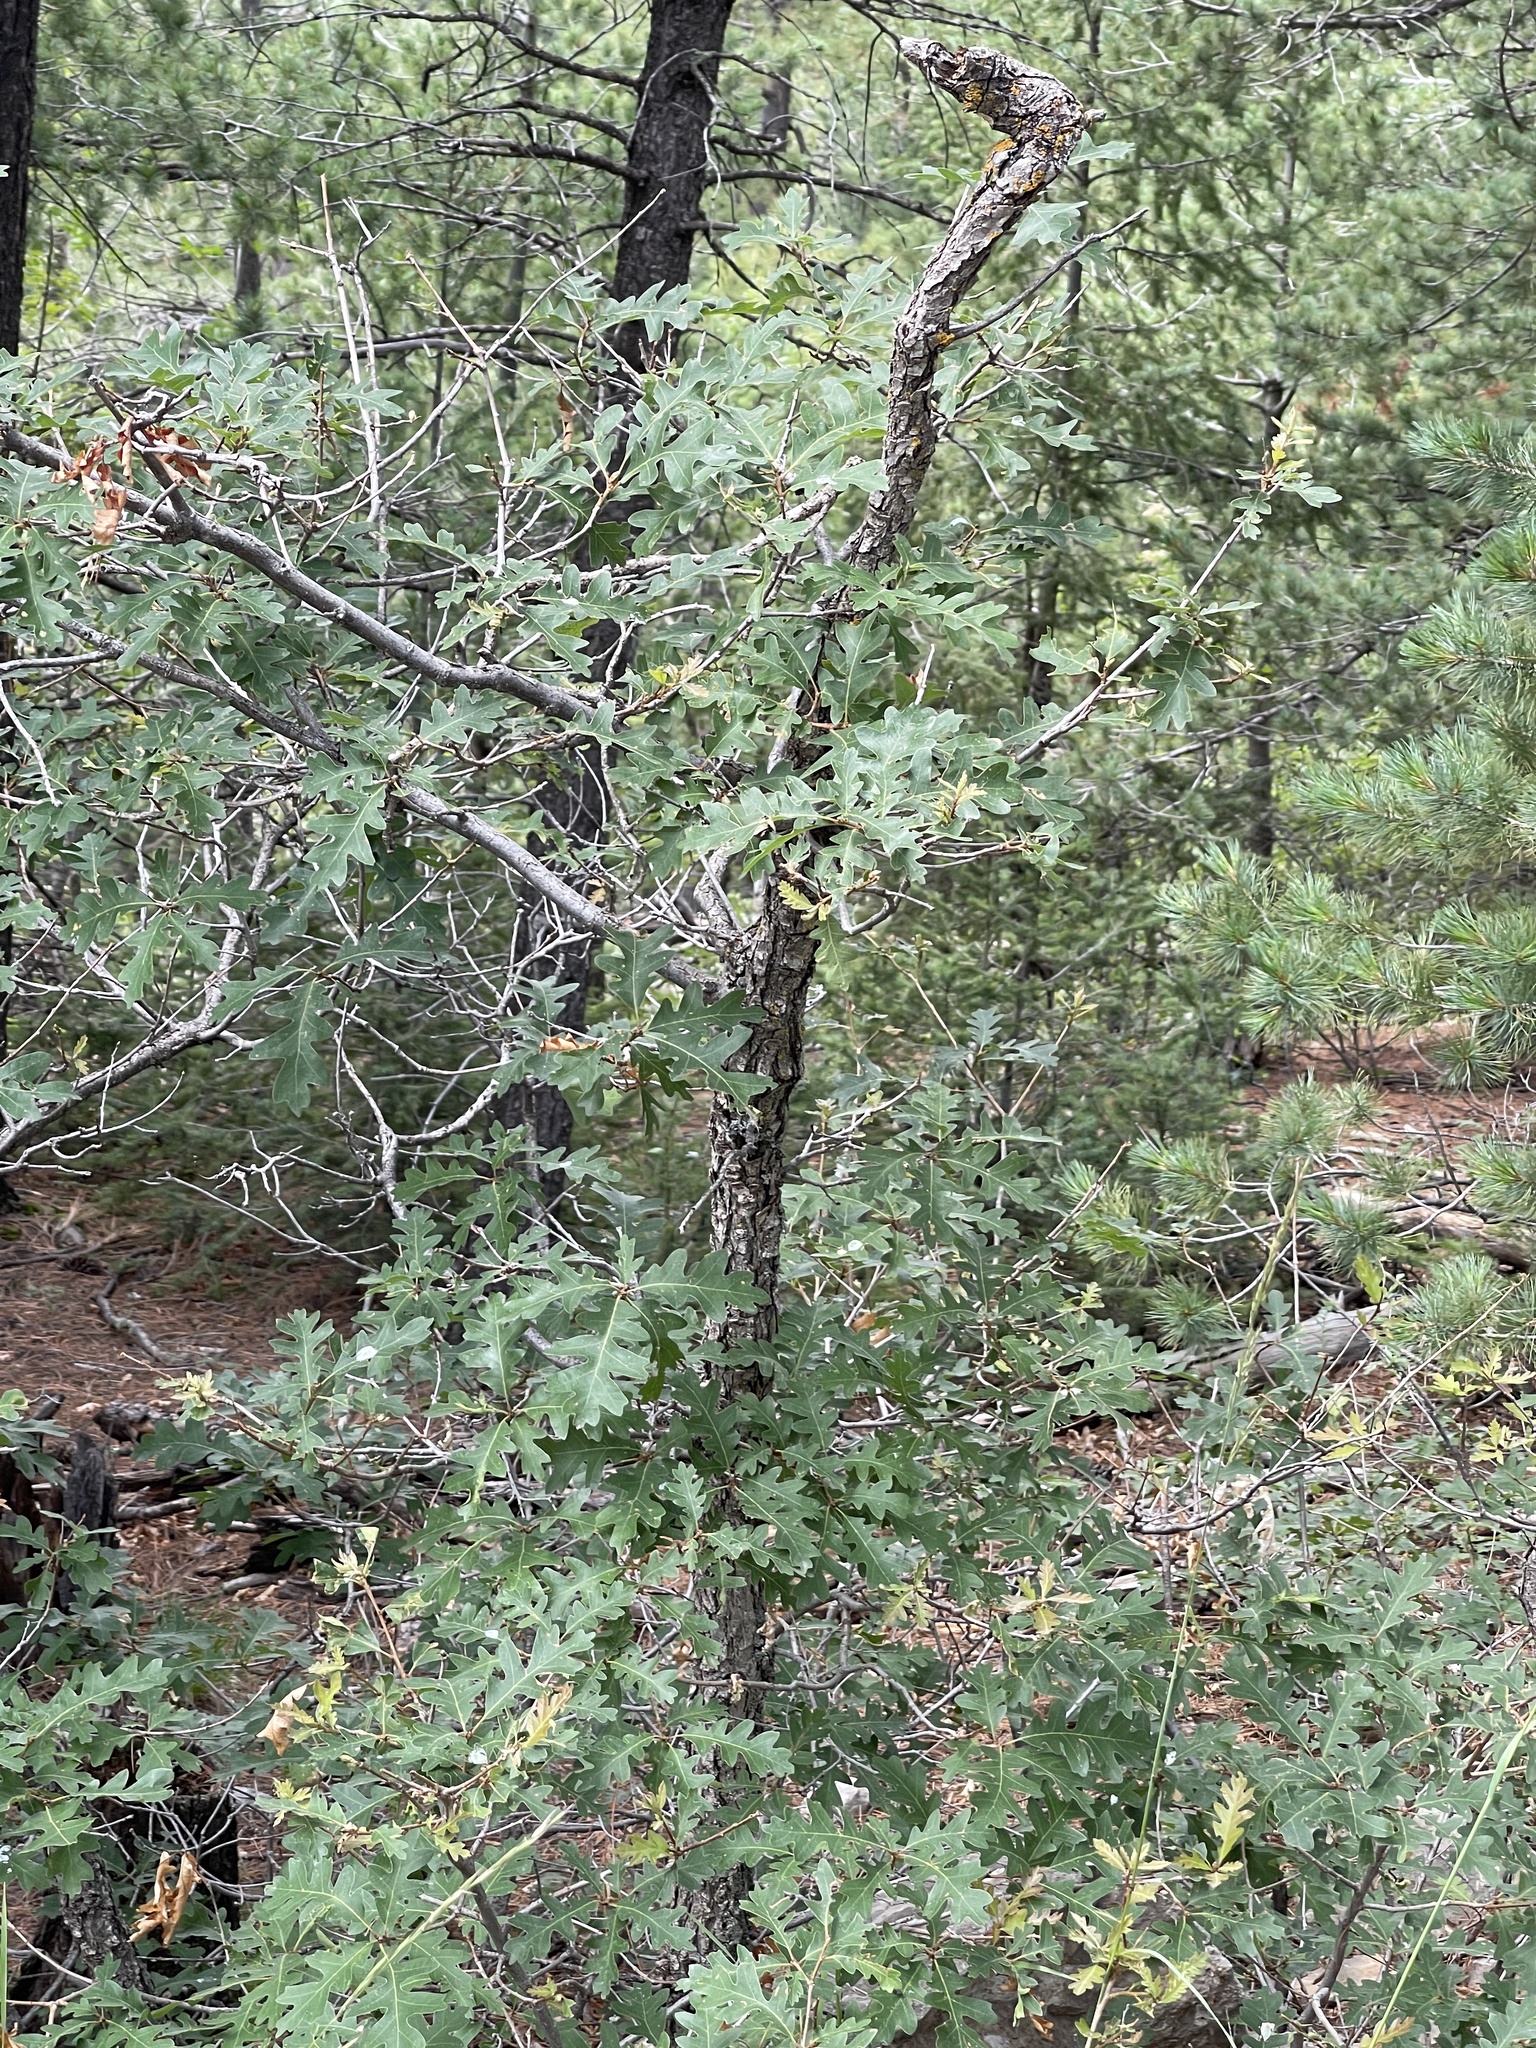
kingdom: Plantae
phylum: Tracheophyta
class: Magnoliopsida
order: Fagales
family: Fagaceae
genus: Quercus
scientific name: Quercus gambelii
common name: Gambel oak
